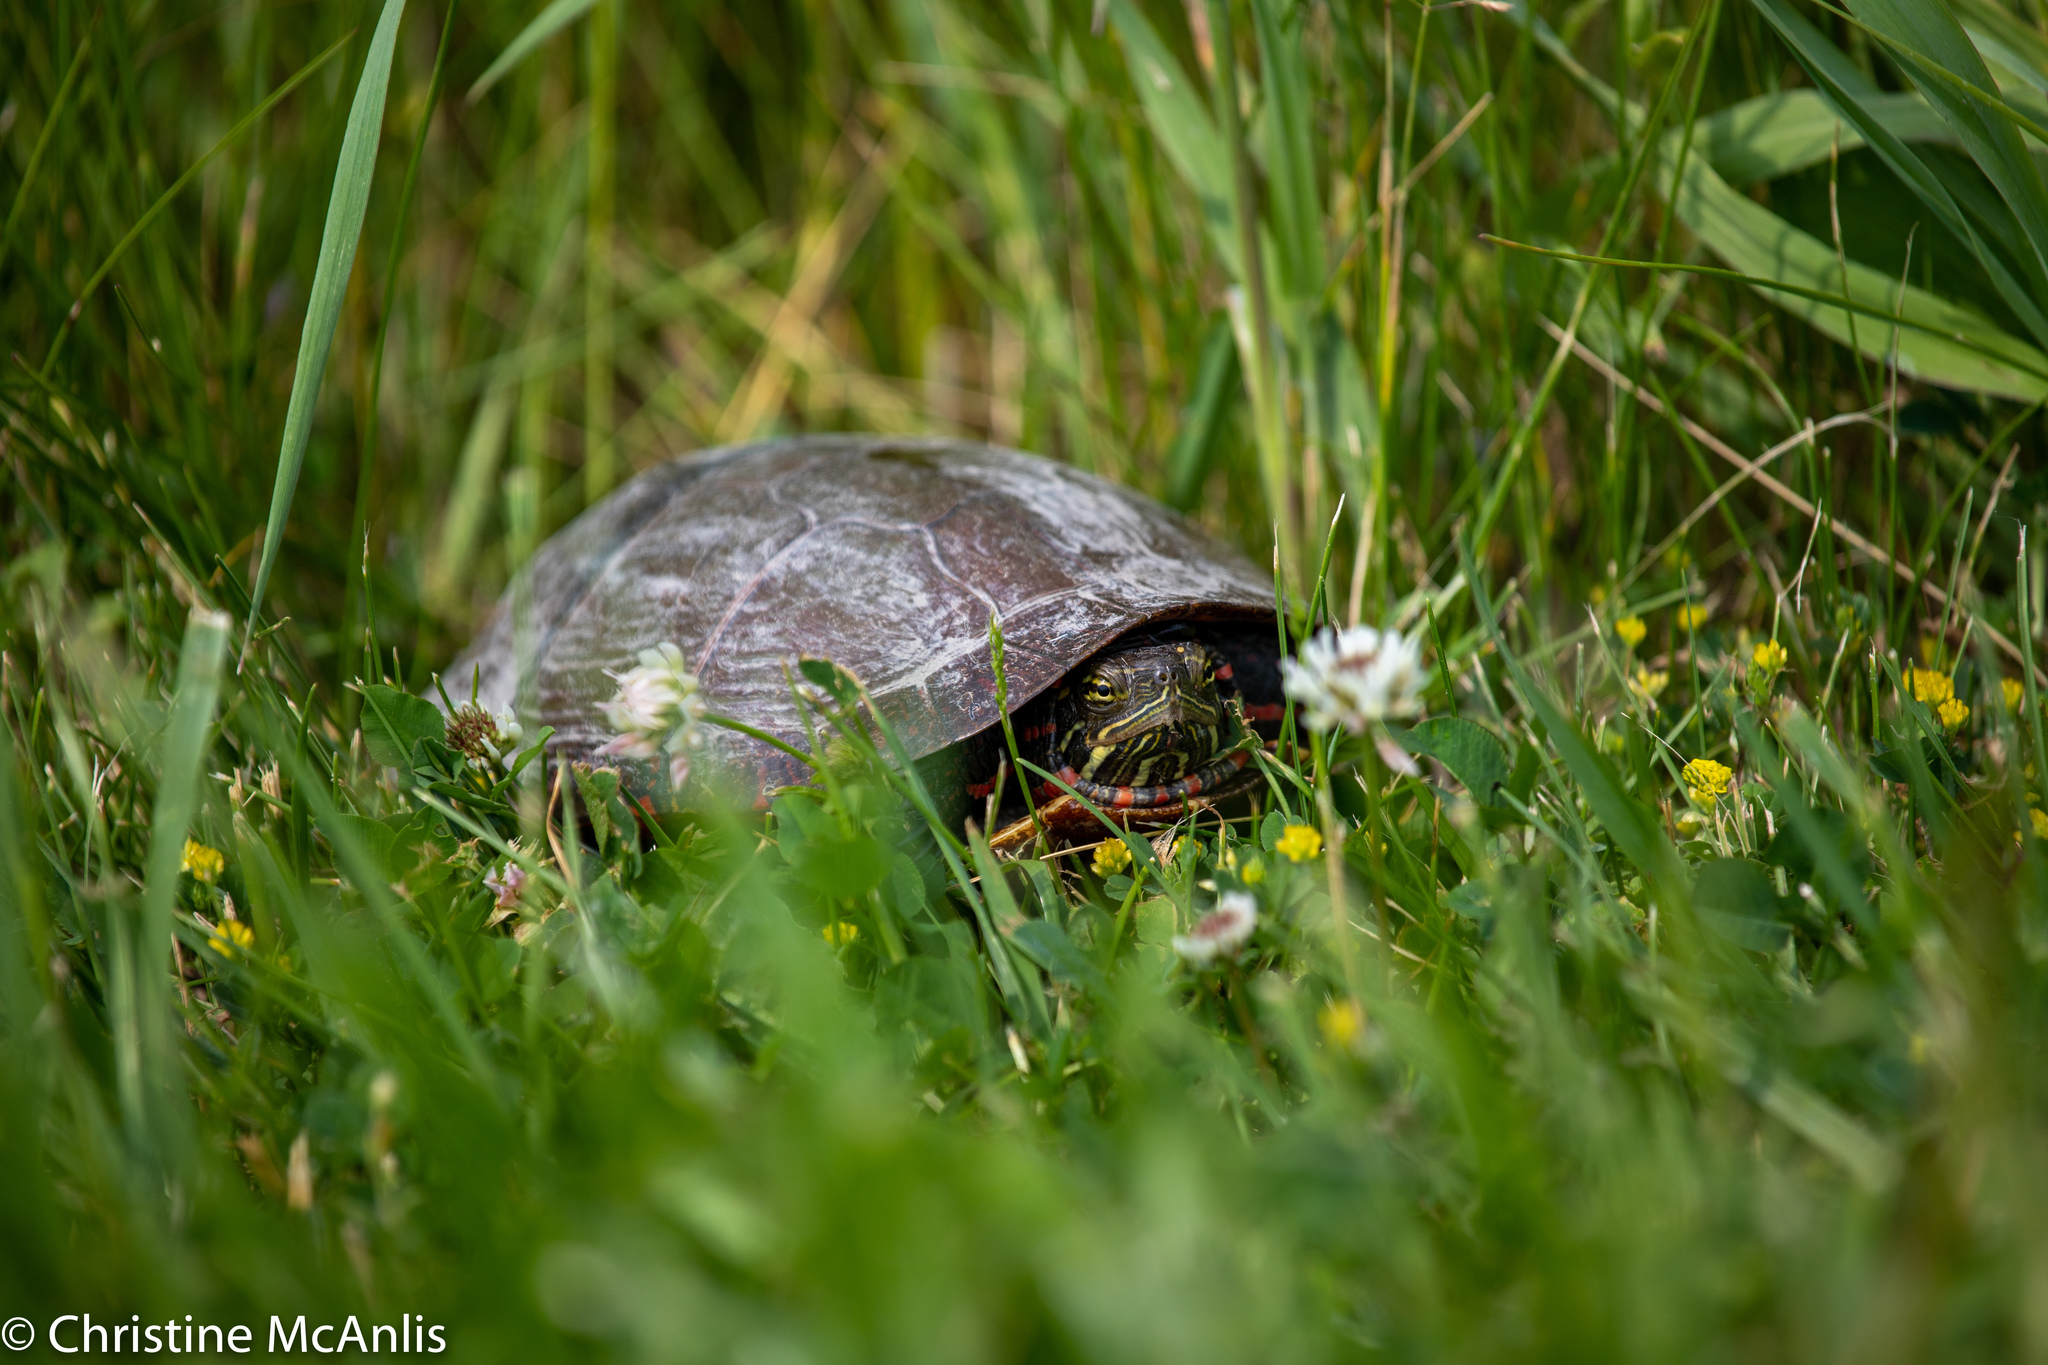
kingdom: Animalia
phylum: Chordata
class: Testudines
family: Emydidae
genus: Chrysemys
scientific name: Chrysemys picta
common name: Painted turtle
